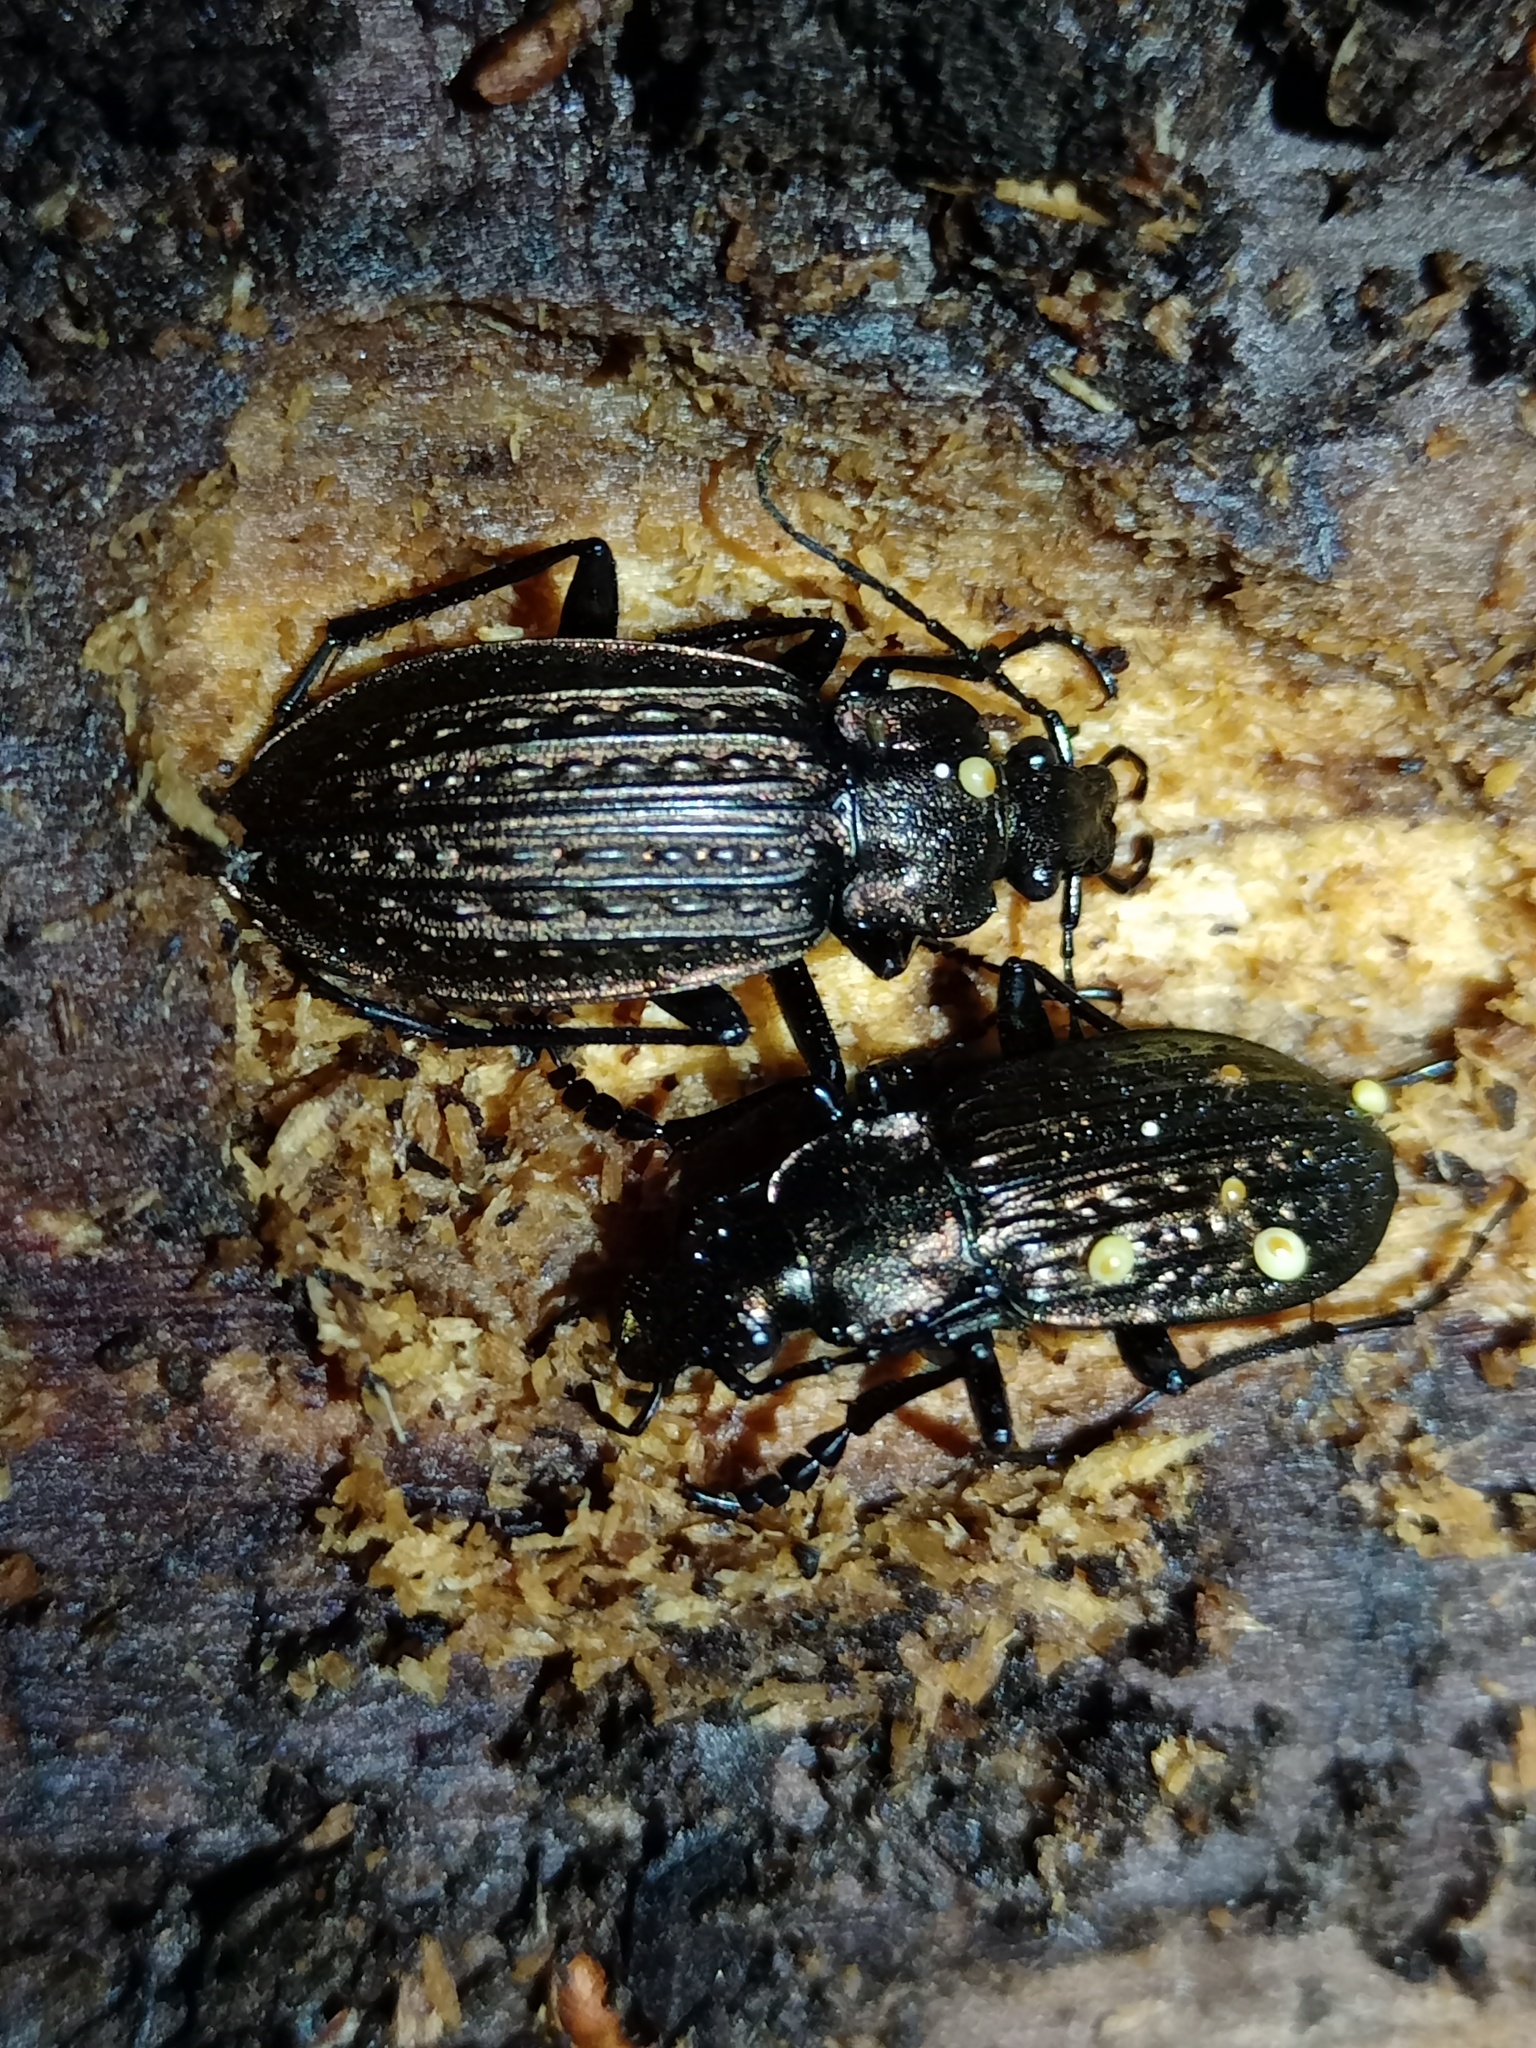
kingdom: Animalia
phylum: Arthropoda
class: Insecta
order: Coleoptera
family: Carabidae
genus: Carabus
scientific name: Carabus ulrichii
